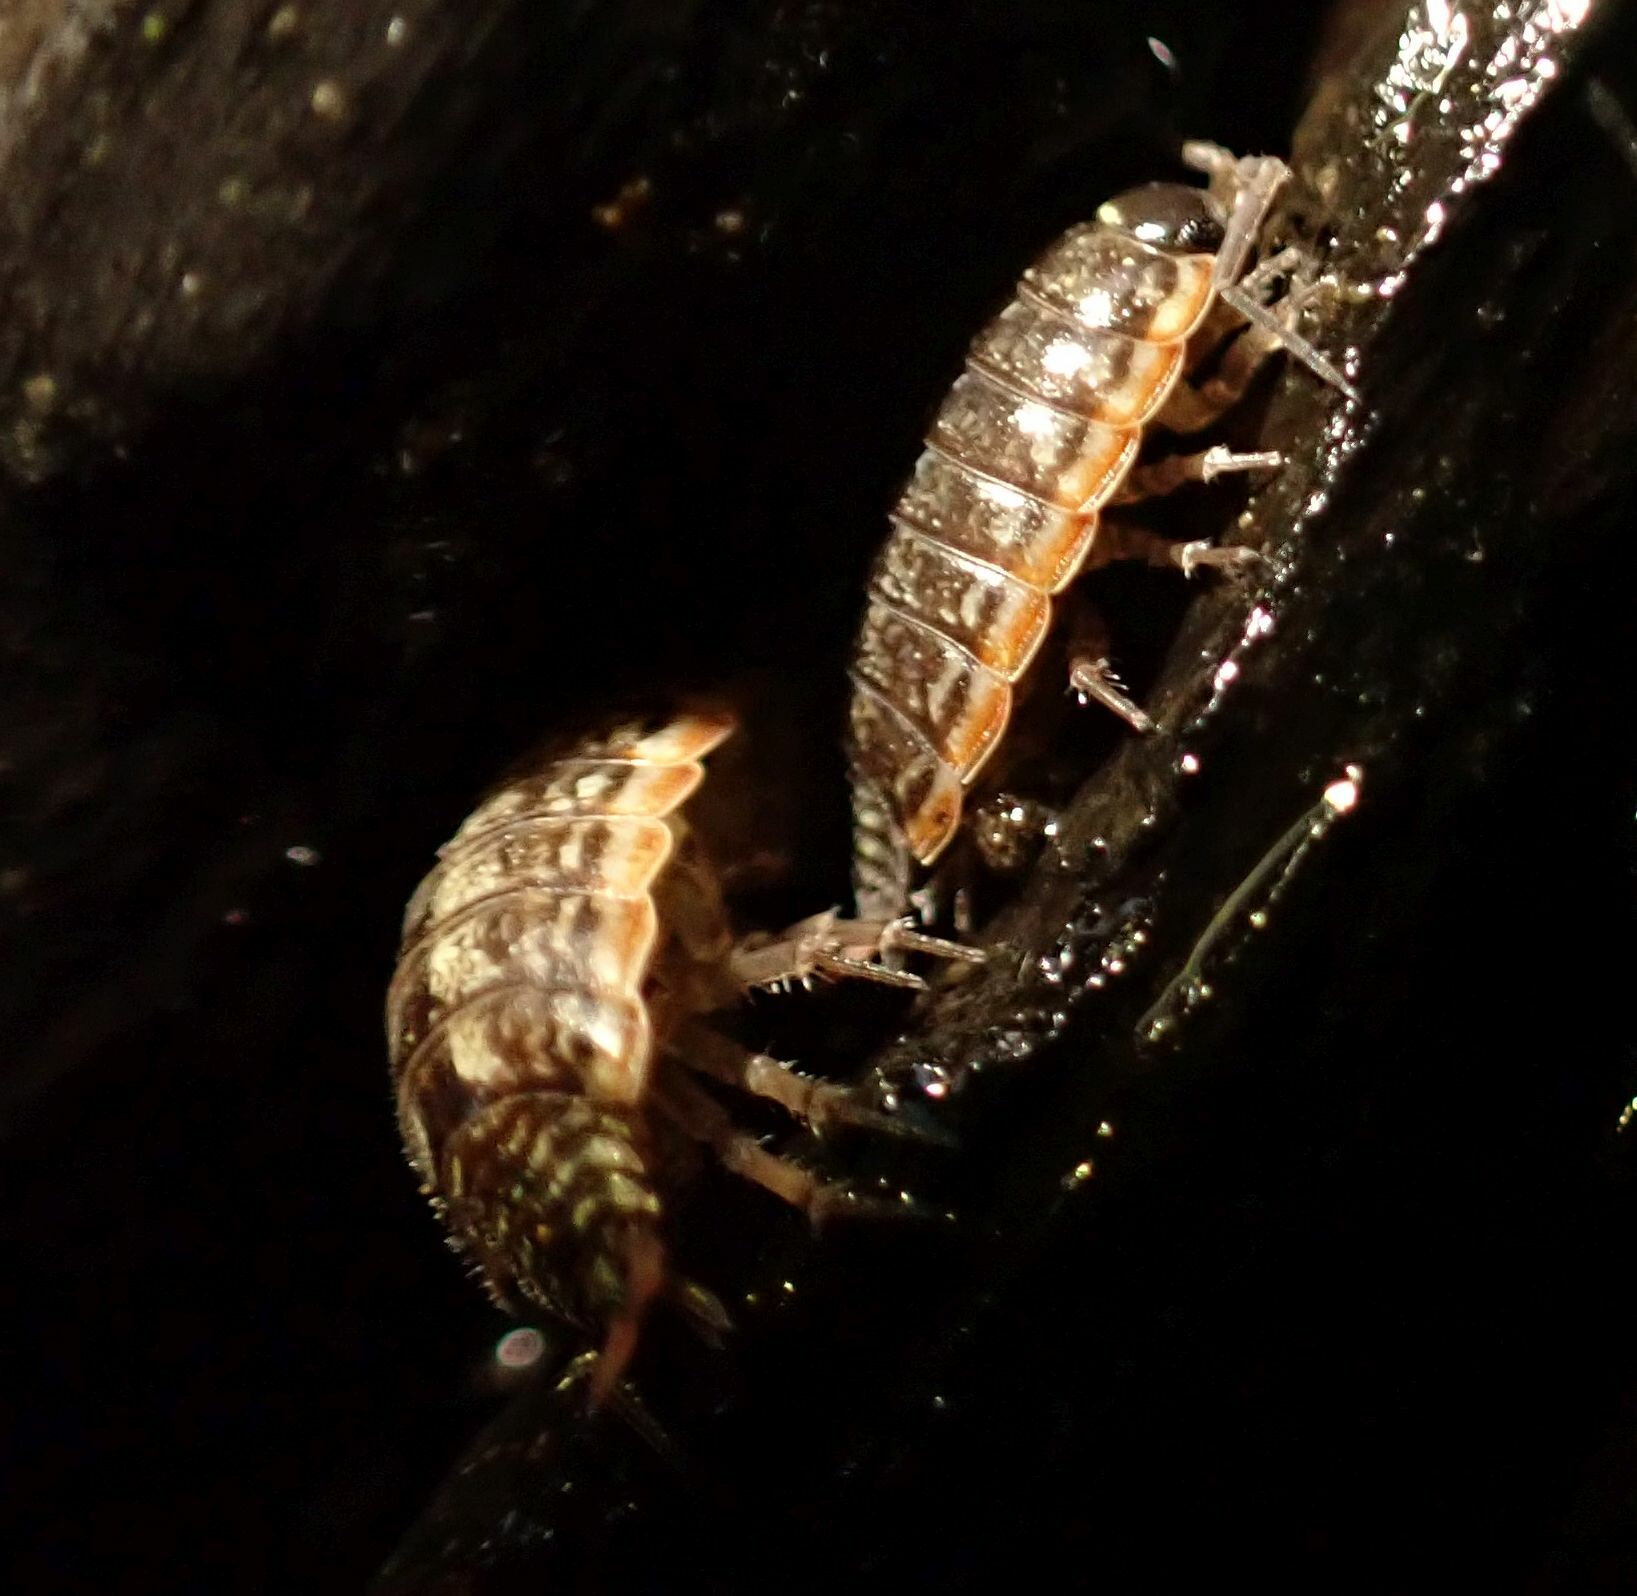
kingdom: Animalia
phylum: Arthropoda
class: Malacostraca
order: Isopoda
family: Philosciidae
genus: Philoscia
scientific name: Philoscia muscorum
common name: Common striped woodlouse
